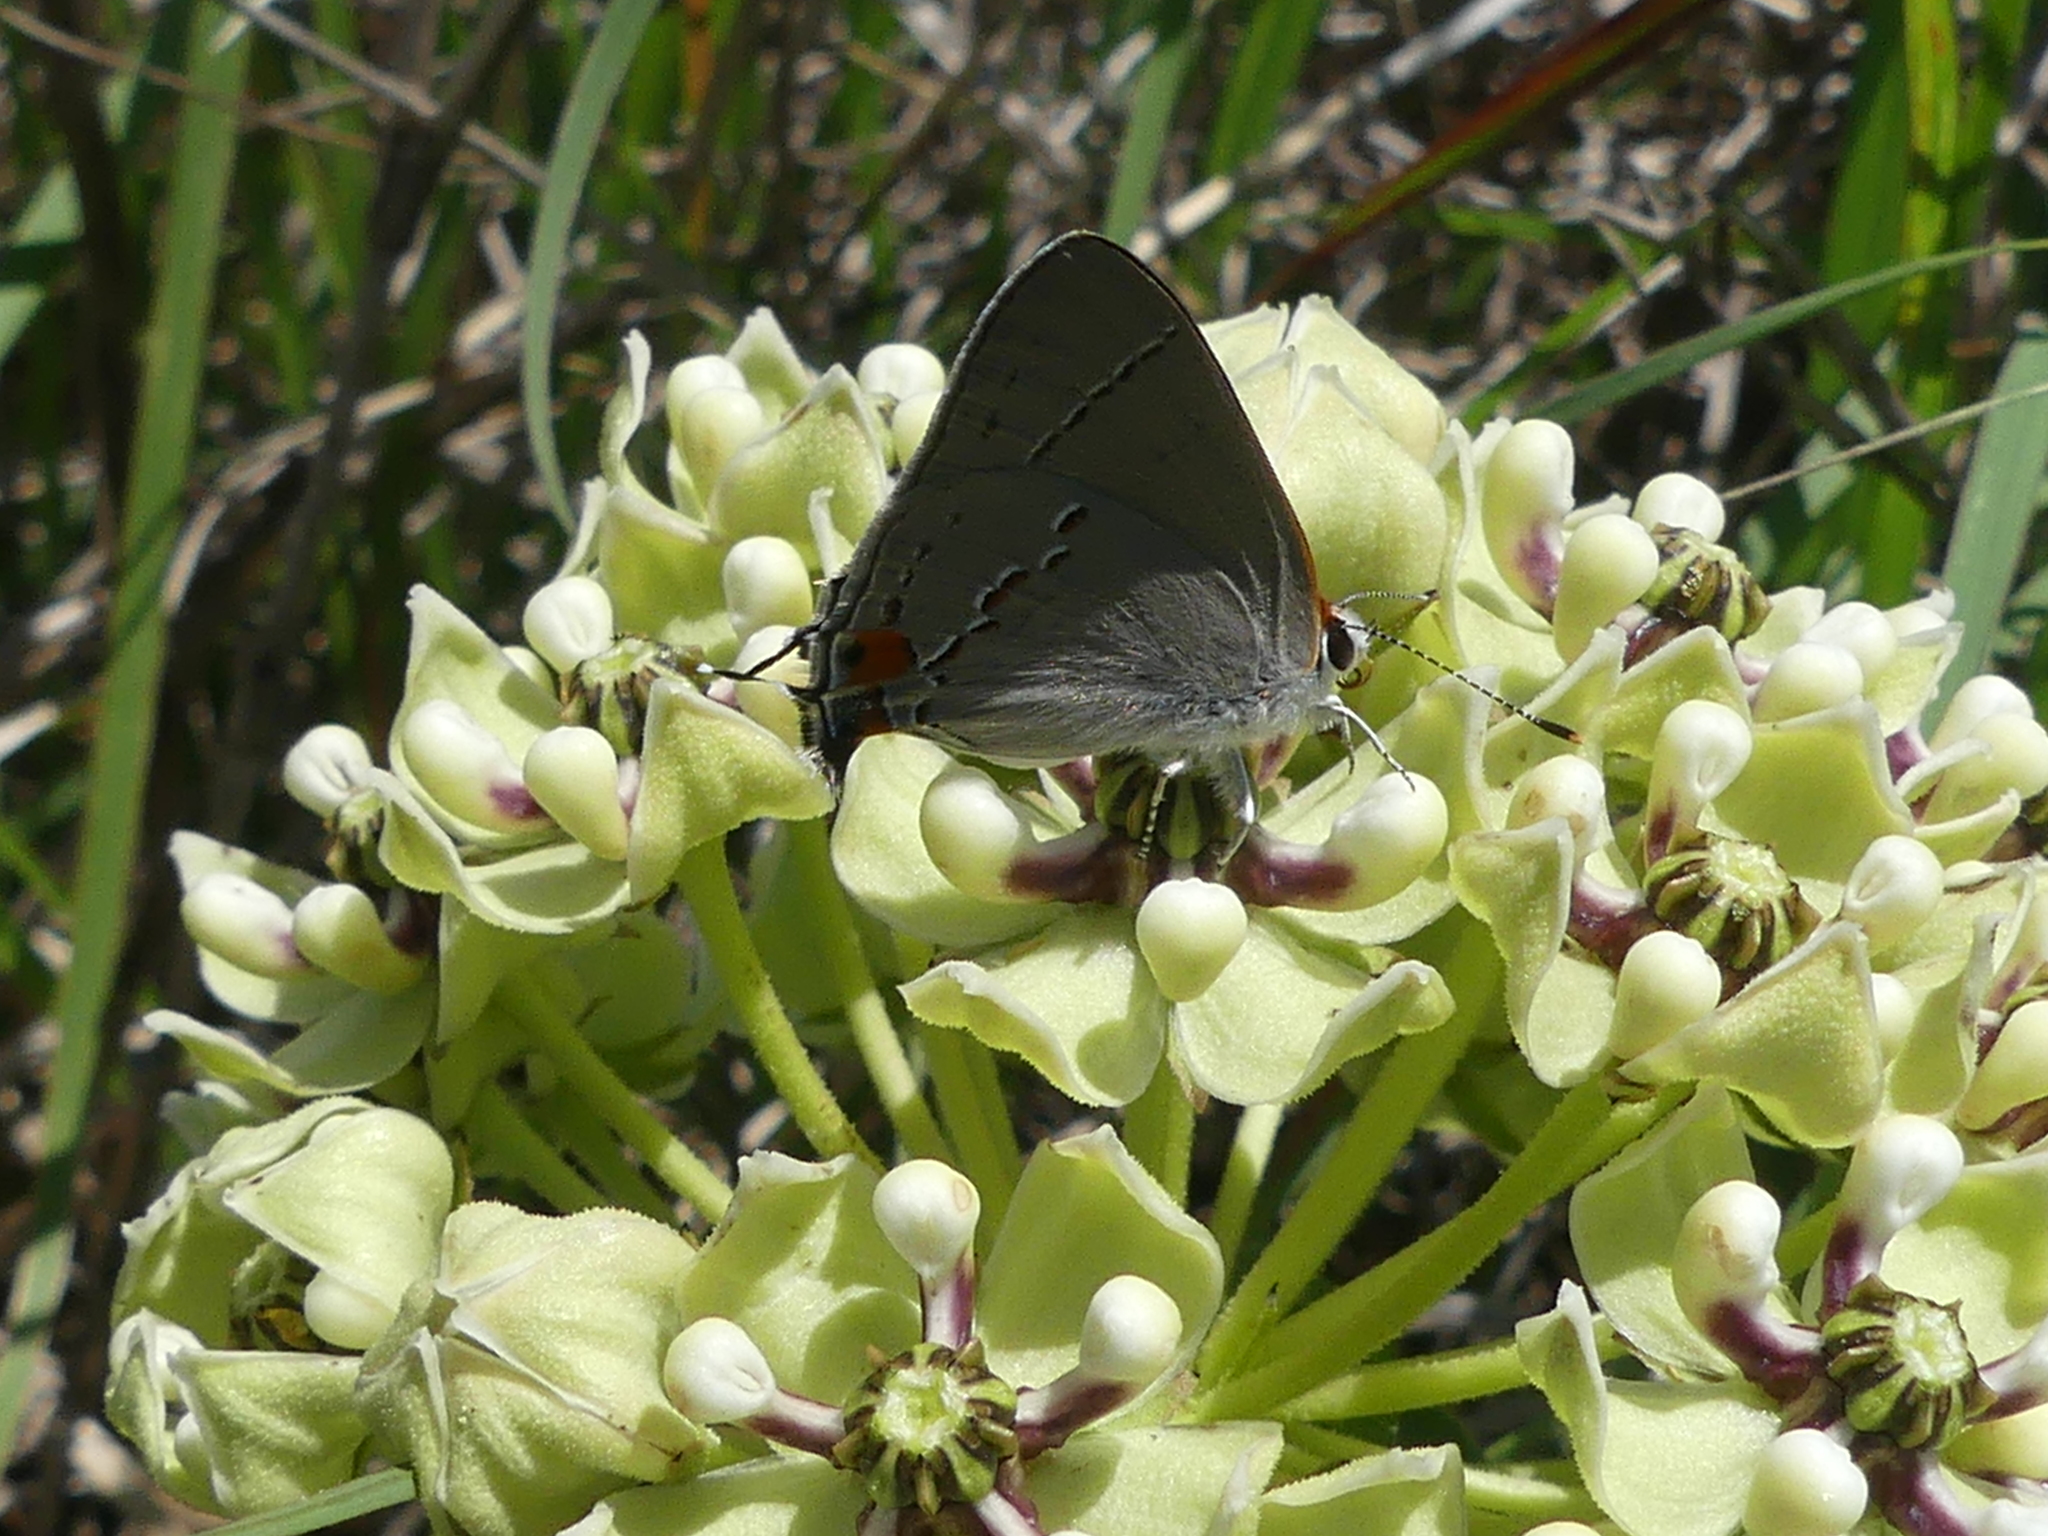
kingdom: Animalia
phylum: Arthropoda
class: Insecta
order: Lepidoptera
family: Lycaenidae
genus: Strymon
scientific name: Strymon melinus
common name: Gray hairstreak
